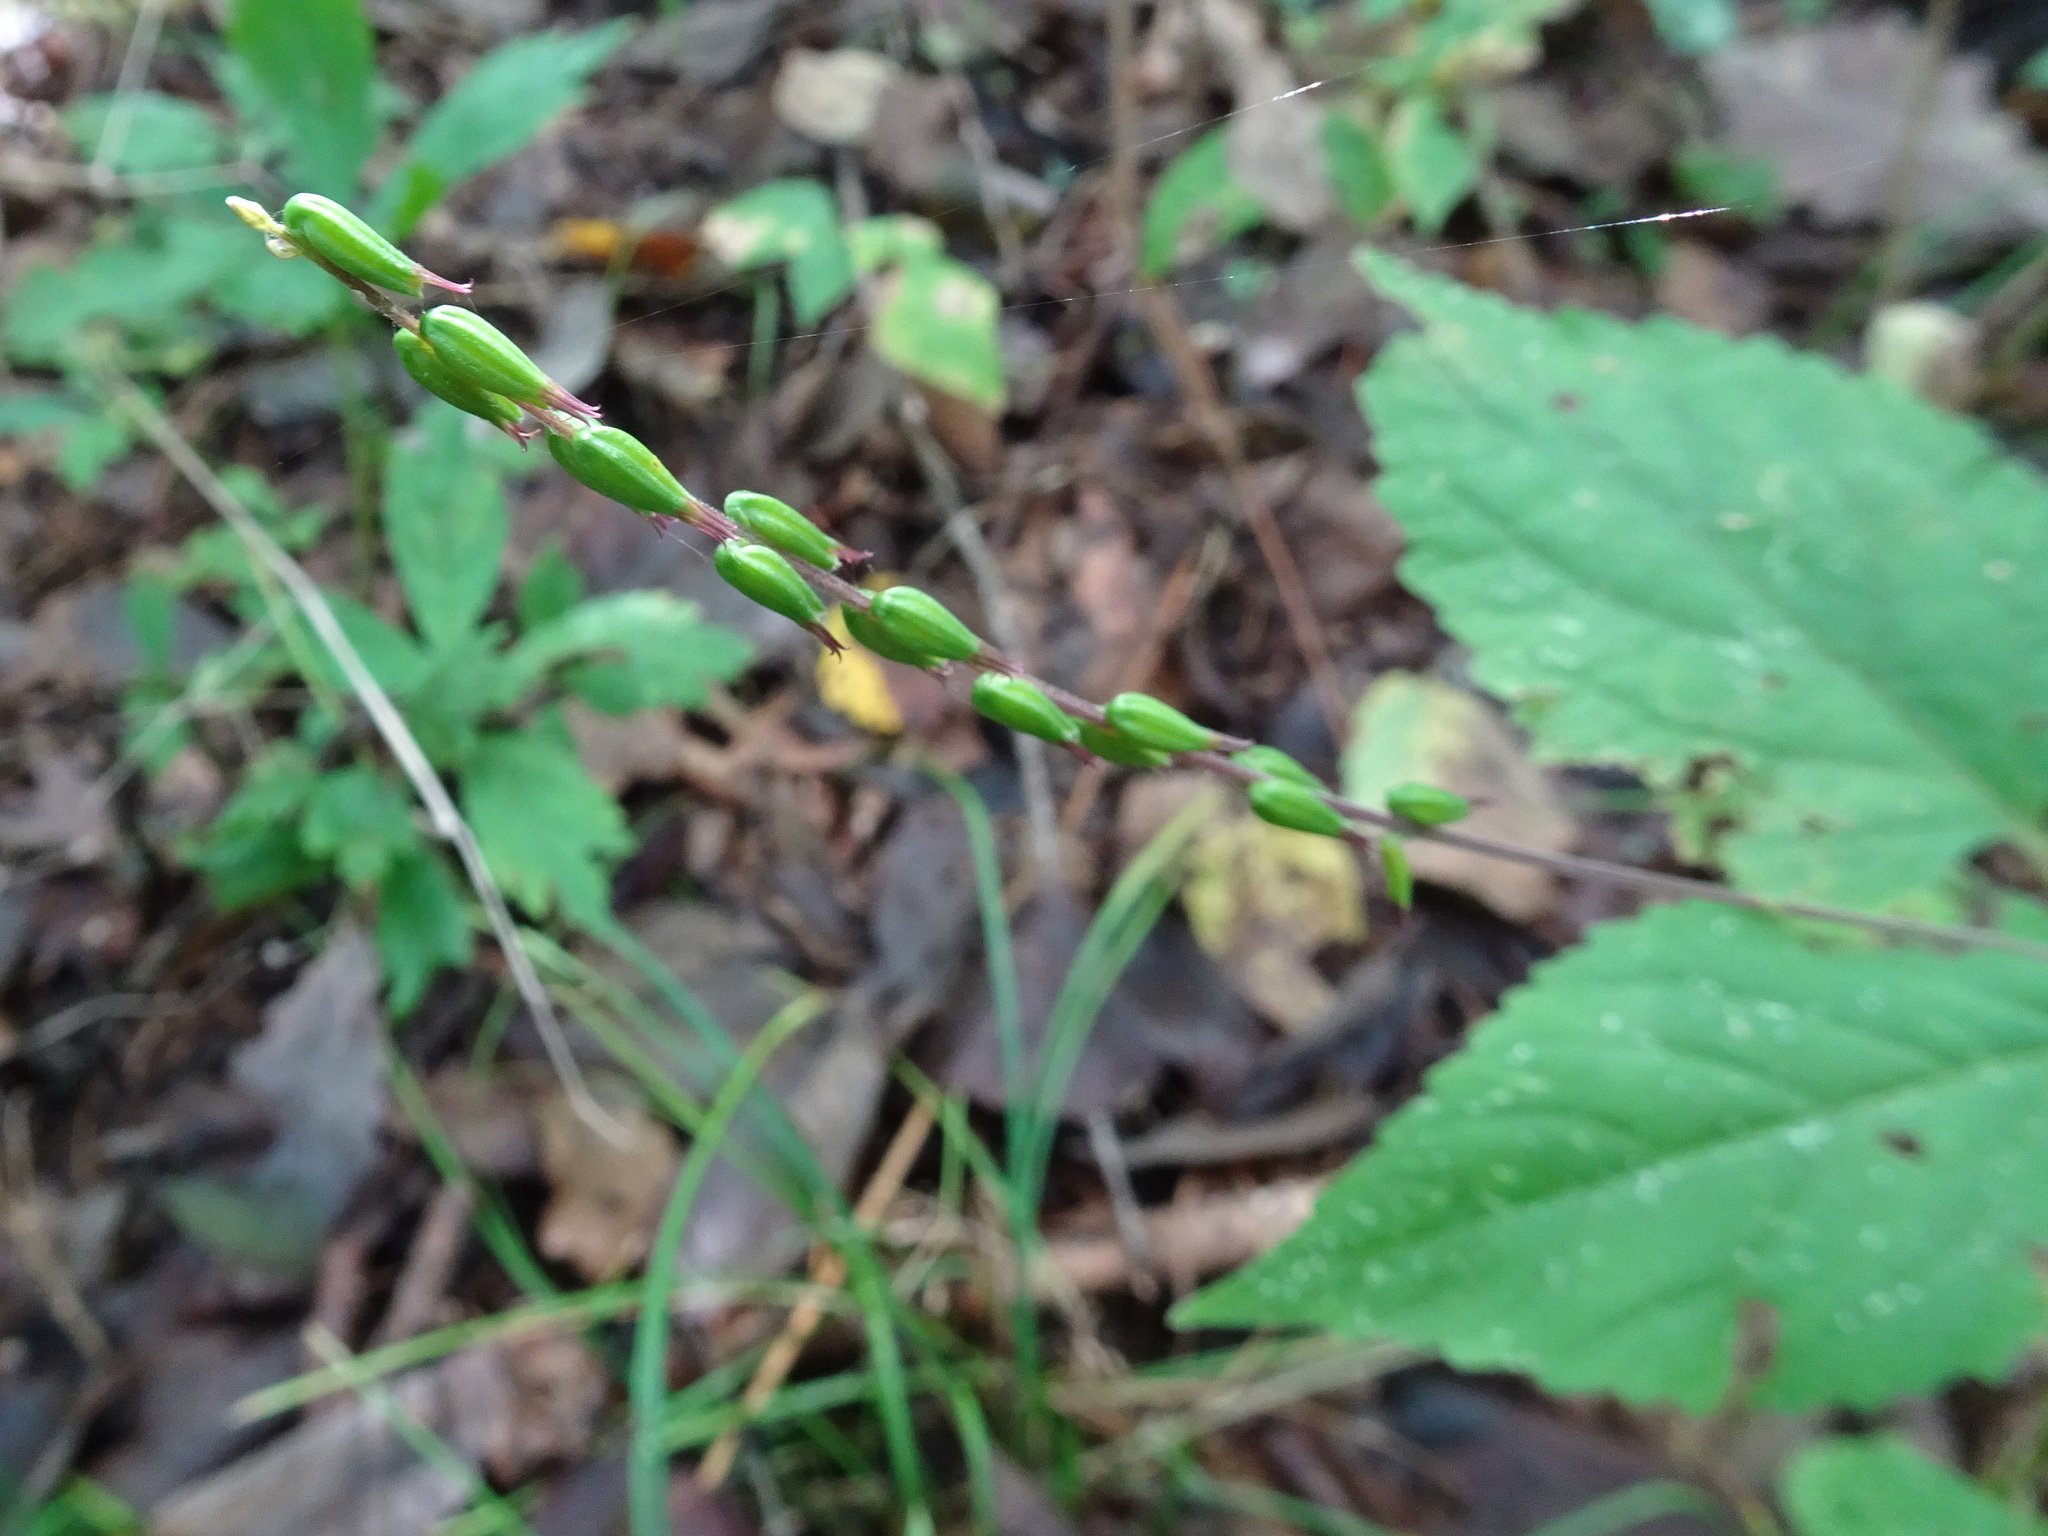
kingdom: Plantae
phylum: Tracheophyta
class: Magnoliopsida
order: Lamiales
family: Phrymaceae
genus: Phryma
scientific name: Phryma leptostachya
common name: American lopseed
